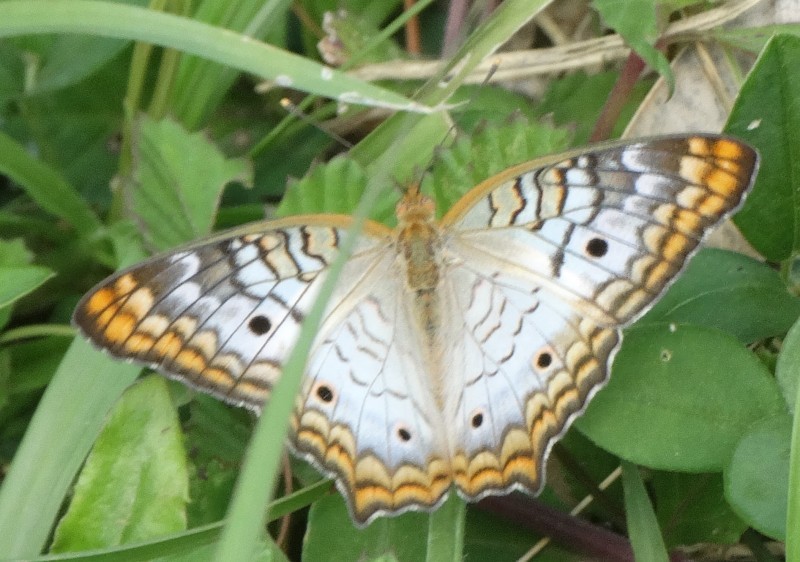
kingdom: Animalia
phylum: Arthropoda
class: Insecta
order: Lepidoptera
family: Nymphalidae
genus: Anartia
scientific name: Anartia jatrophae
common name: White peacock
